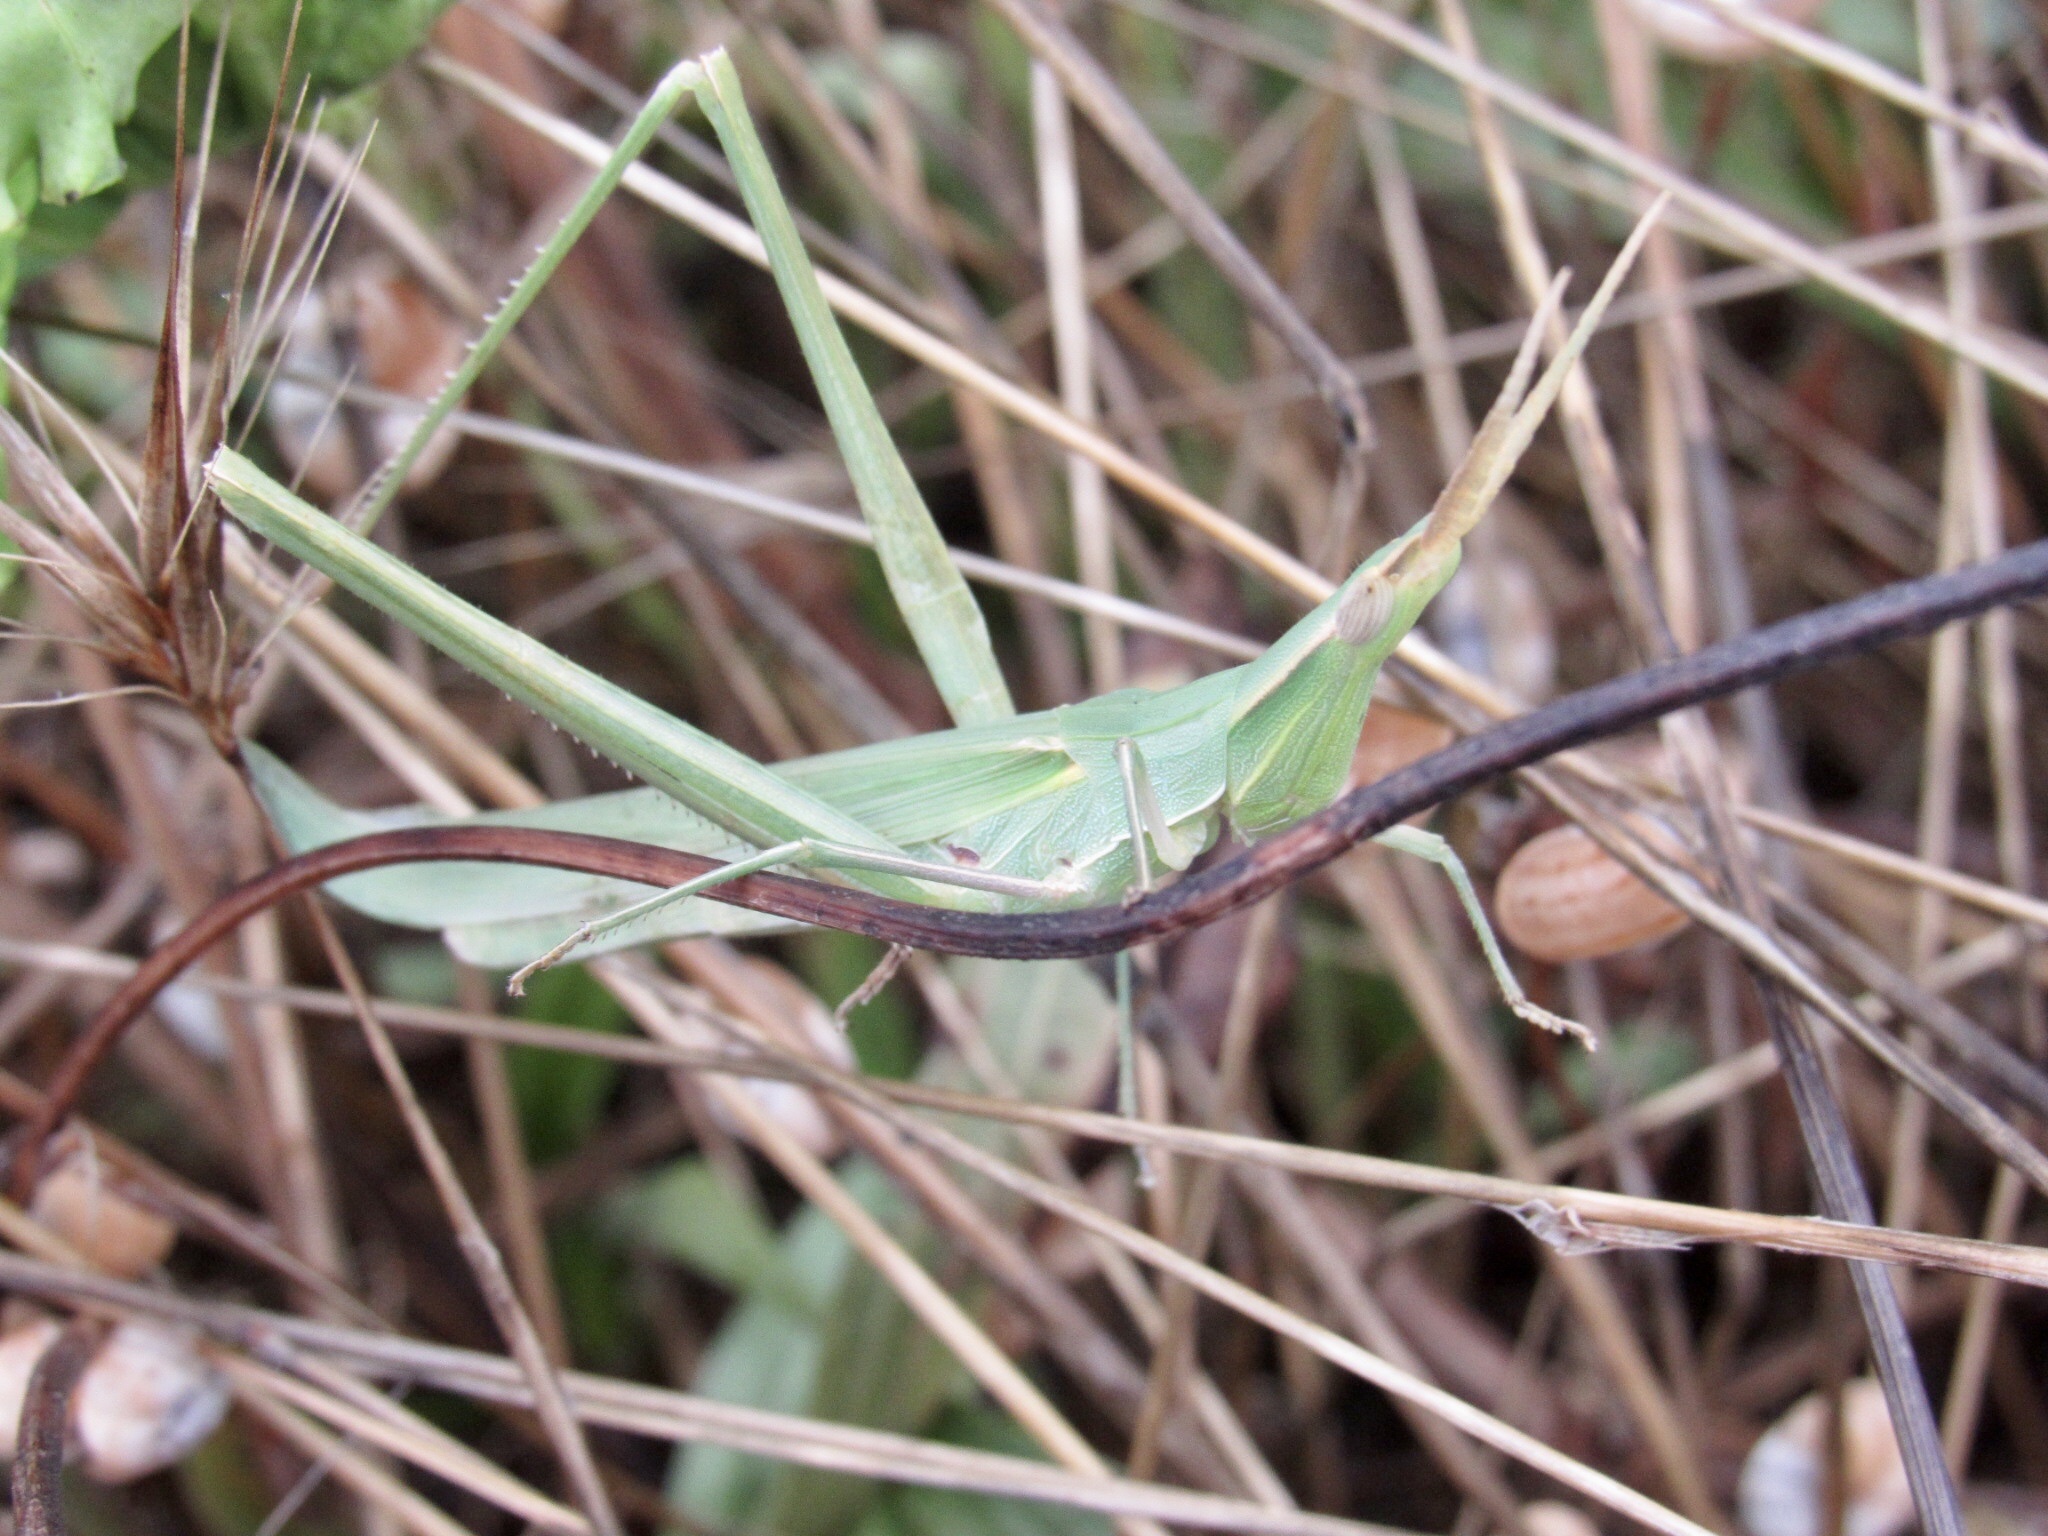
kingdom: Animalia
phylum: Arthropoda
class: Insecta
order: Orthoptera
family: Acrididae
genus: Acrida
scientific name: Acrida ungarica
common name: Common cone-headed grasshopper
